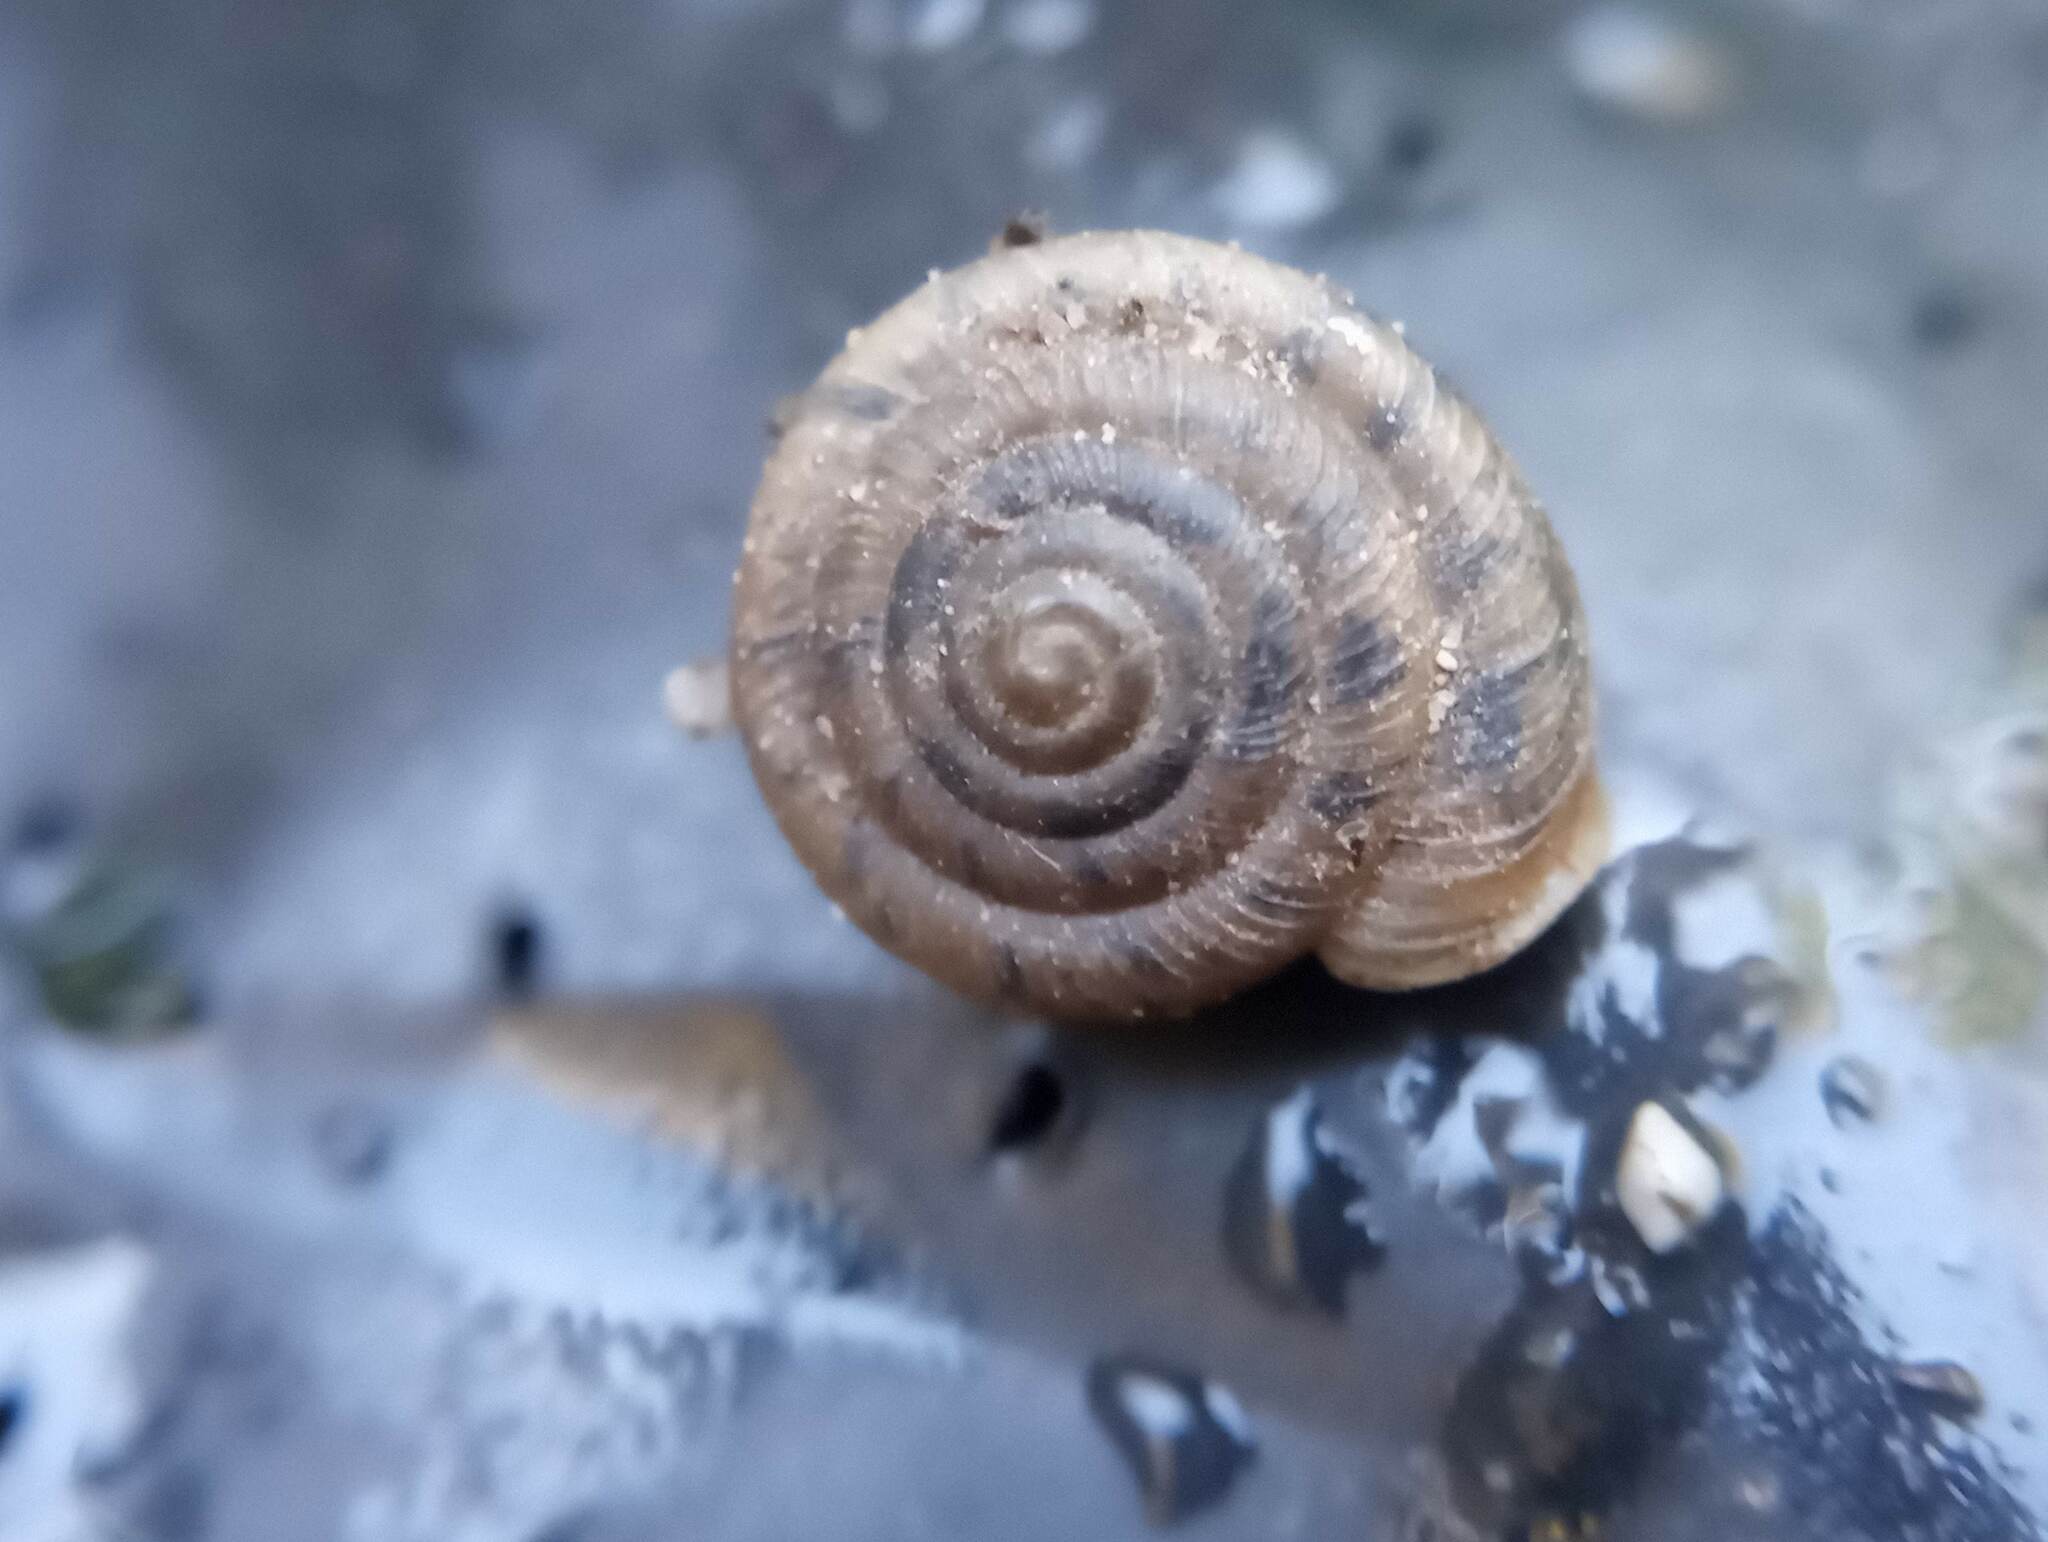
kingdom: Animalia
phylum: Mollusca
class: Gastropoda
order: Stylommatophora
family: Polygyridae
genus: Polygyra
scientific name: Polygyra cereolus
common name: Southern flatcone snail
